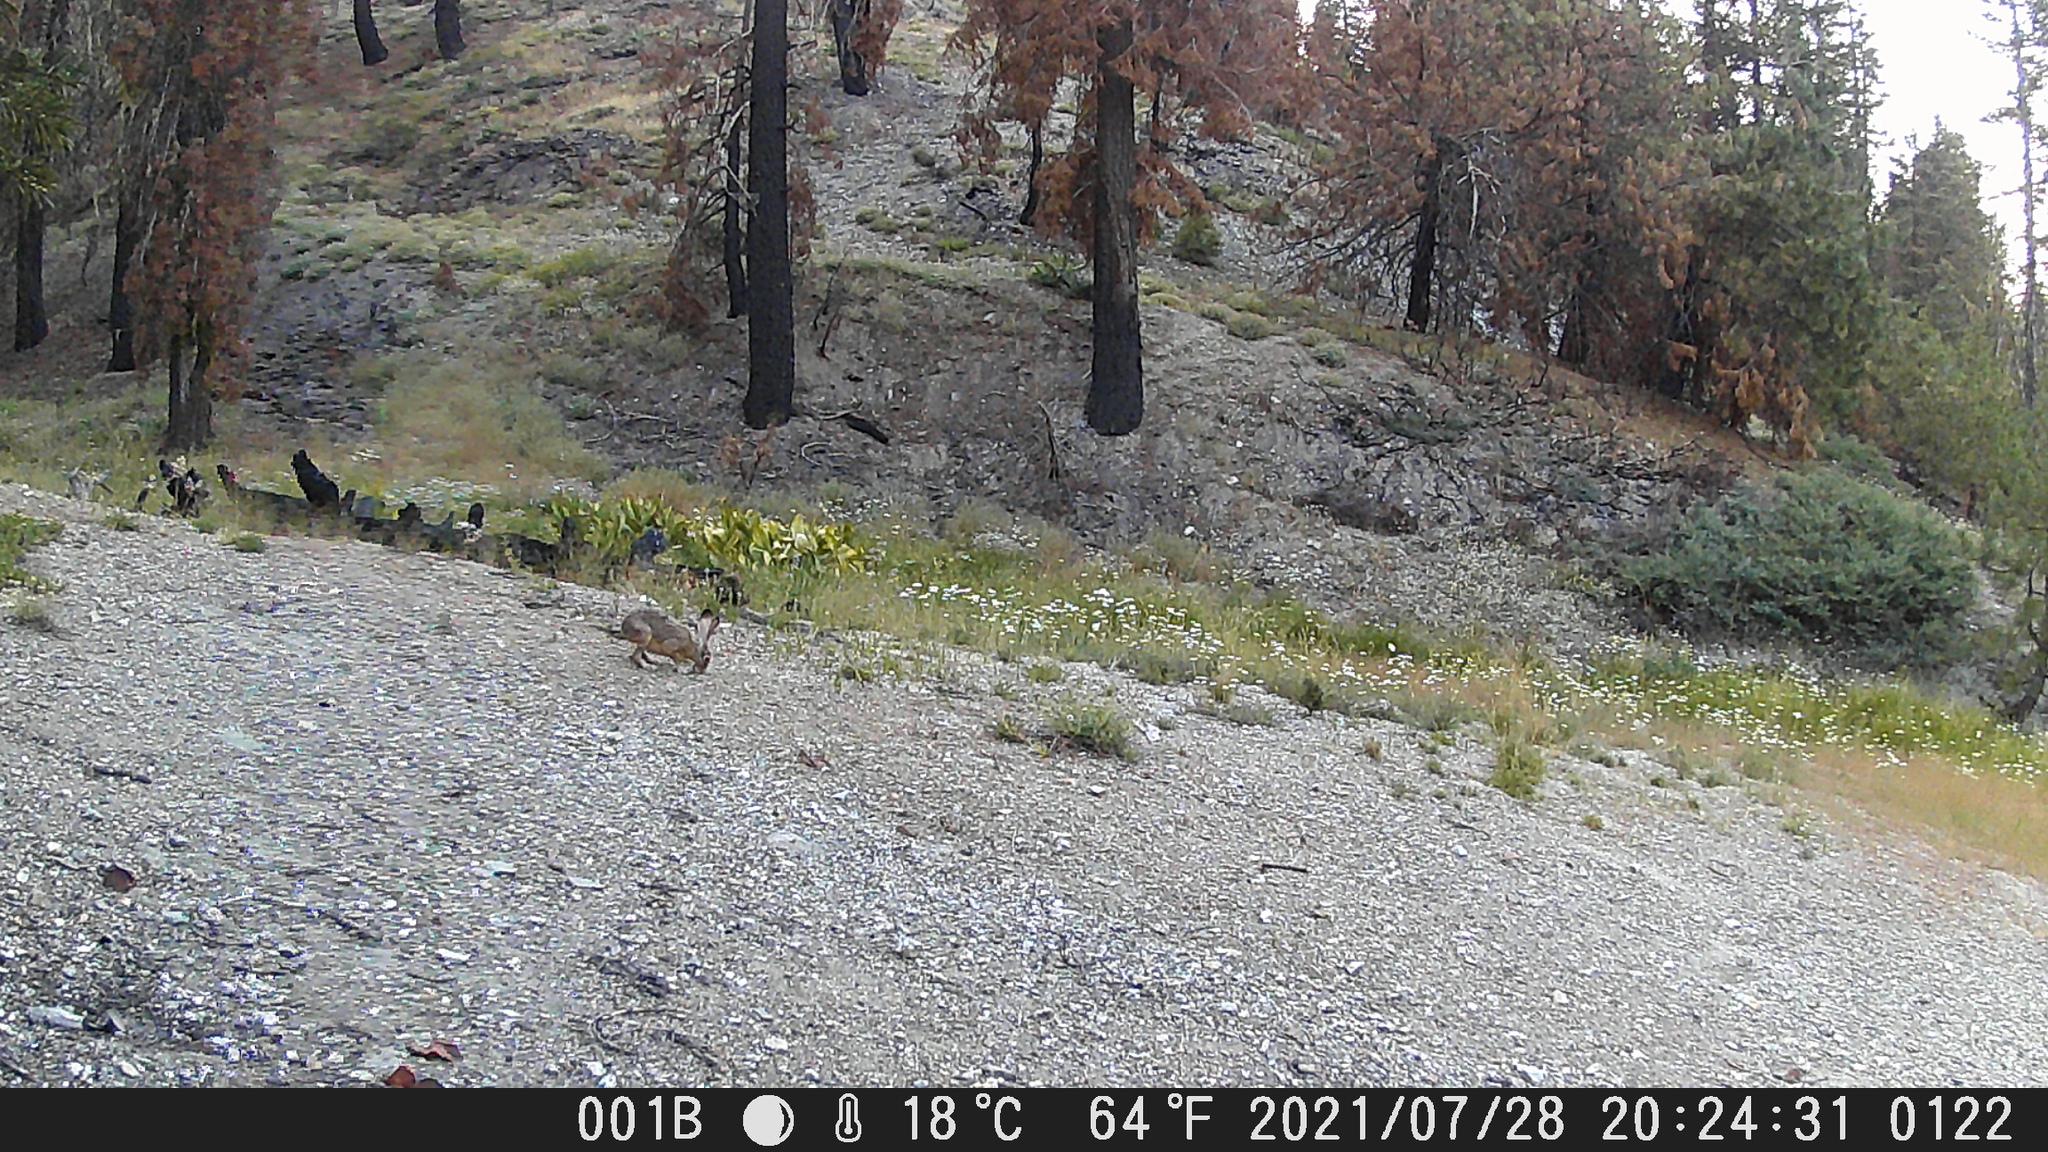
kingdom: Animalia
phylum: Chordata
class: Mammalia
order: Lagomorpha
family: Leporidae
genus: Lepus
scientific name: Lepus californicus
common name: Black-tailed jackrabbit
